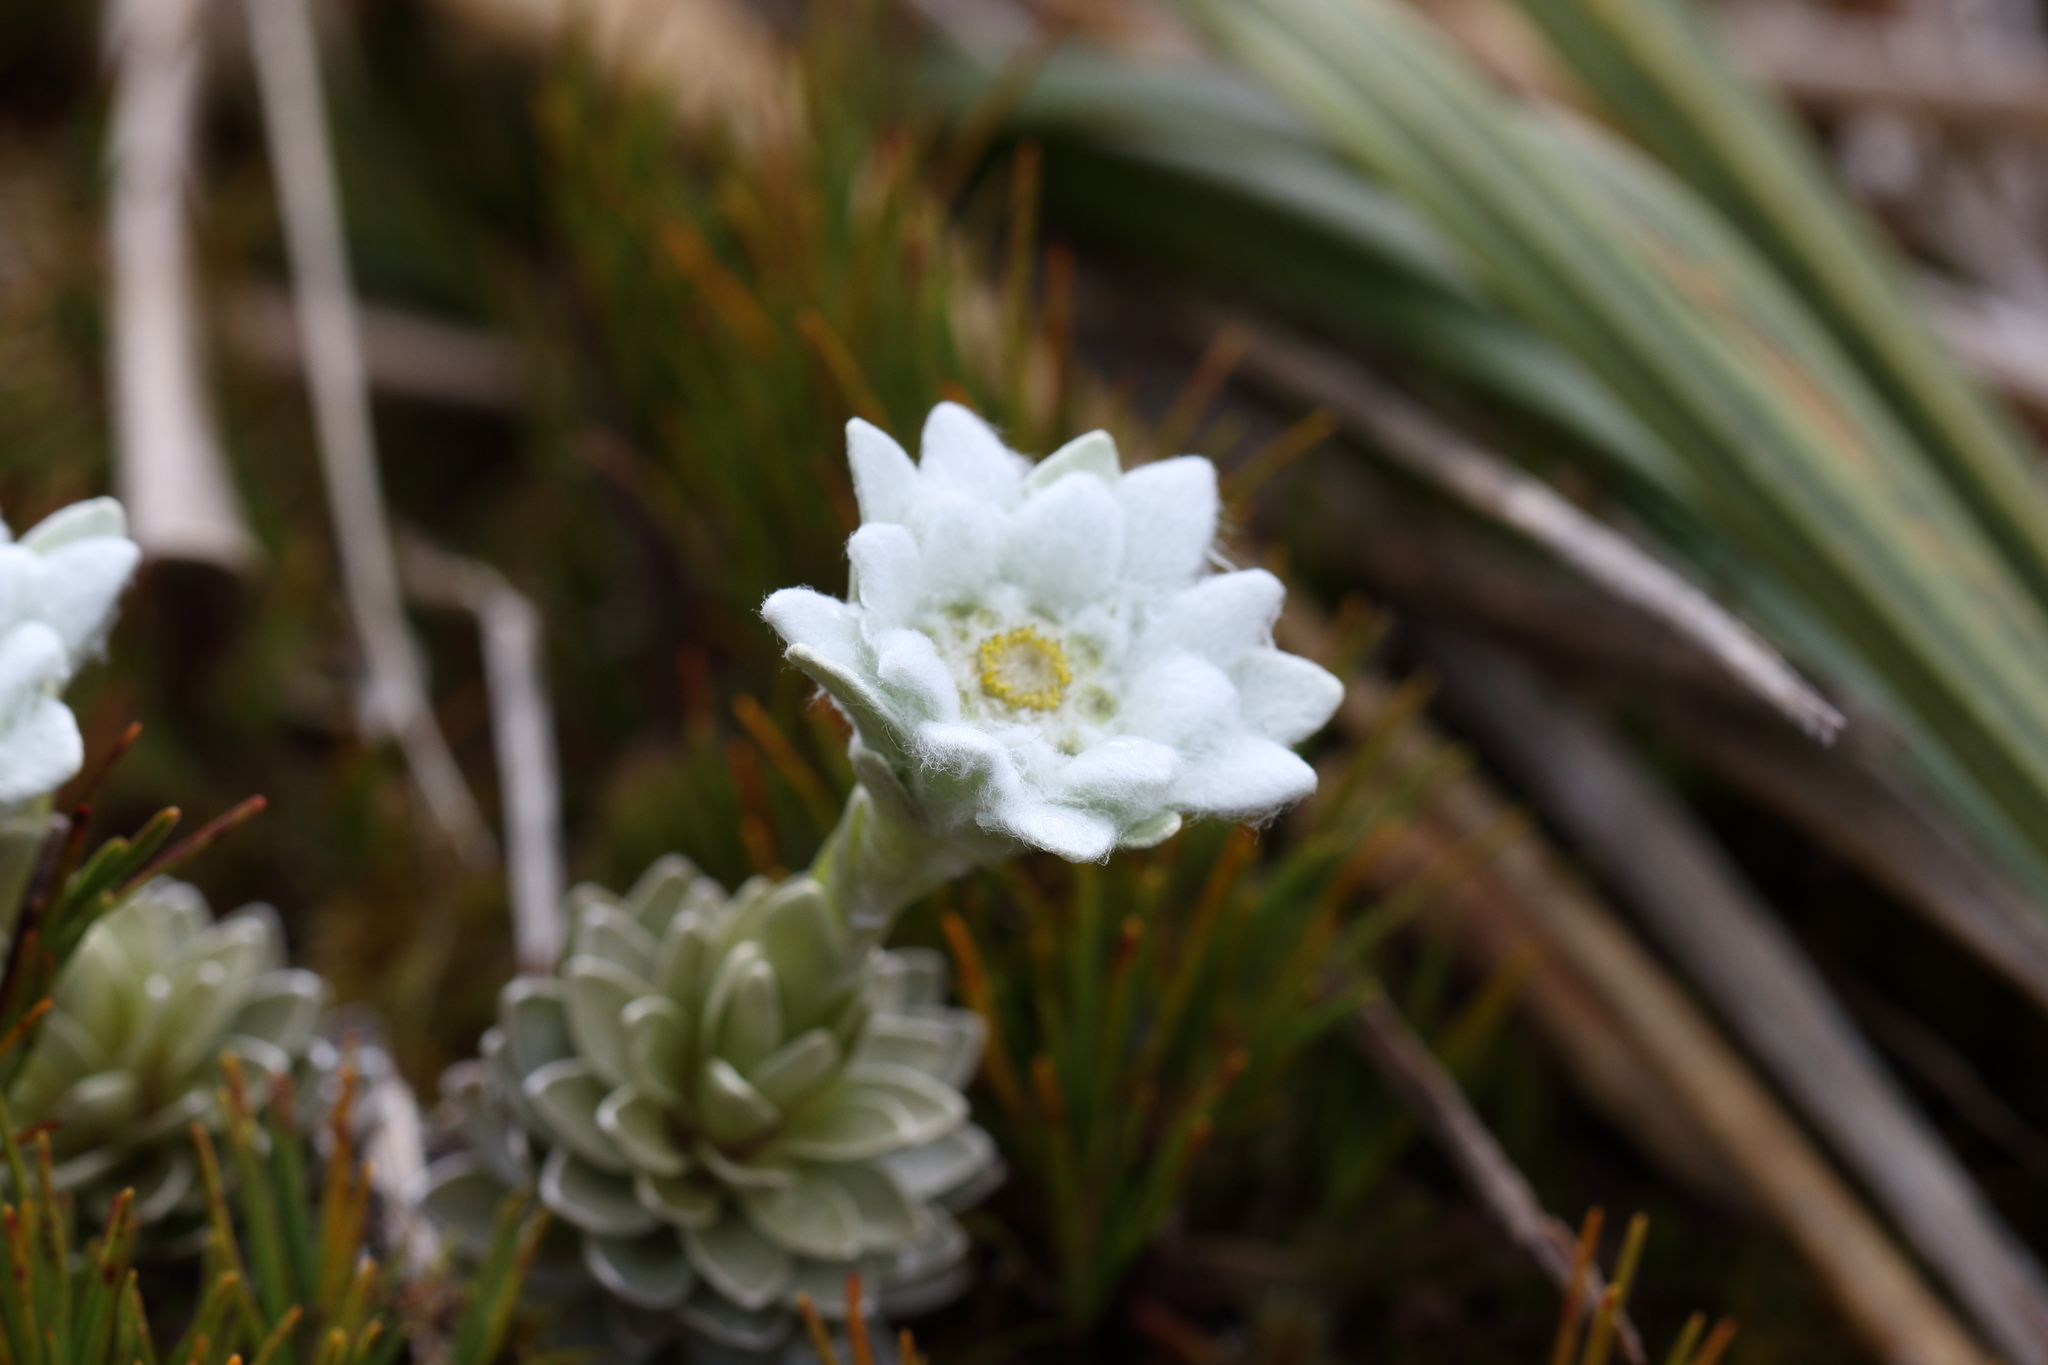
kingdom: Plantae
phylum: Tracheophyta
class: Magnoliopsida
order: Asterales
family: Asteraceae
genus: Leucogenes
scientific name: Leucogenes leontopodium
